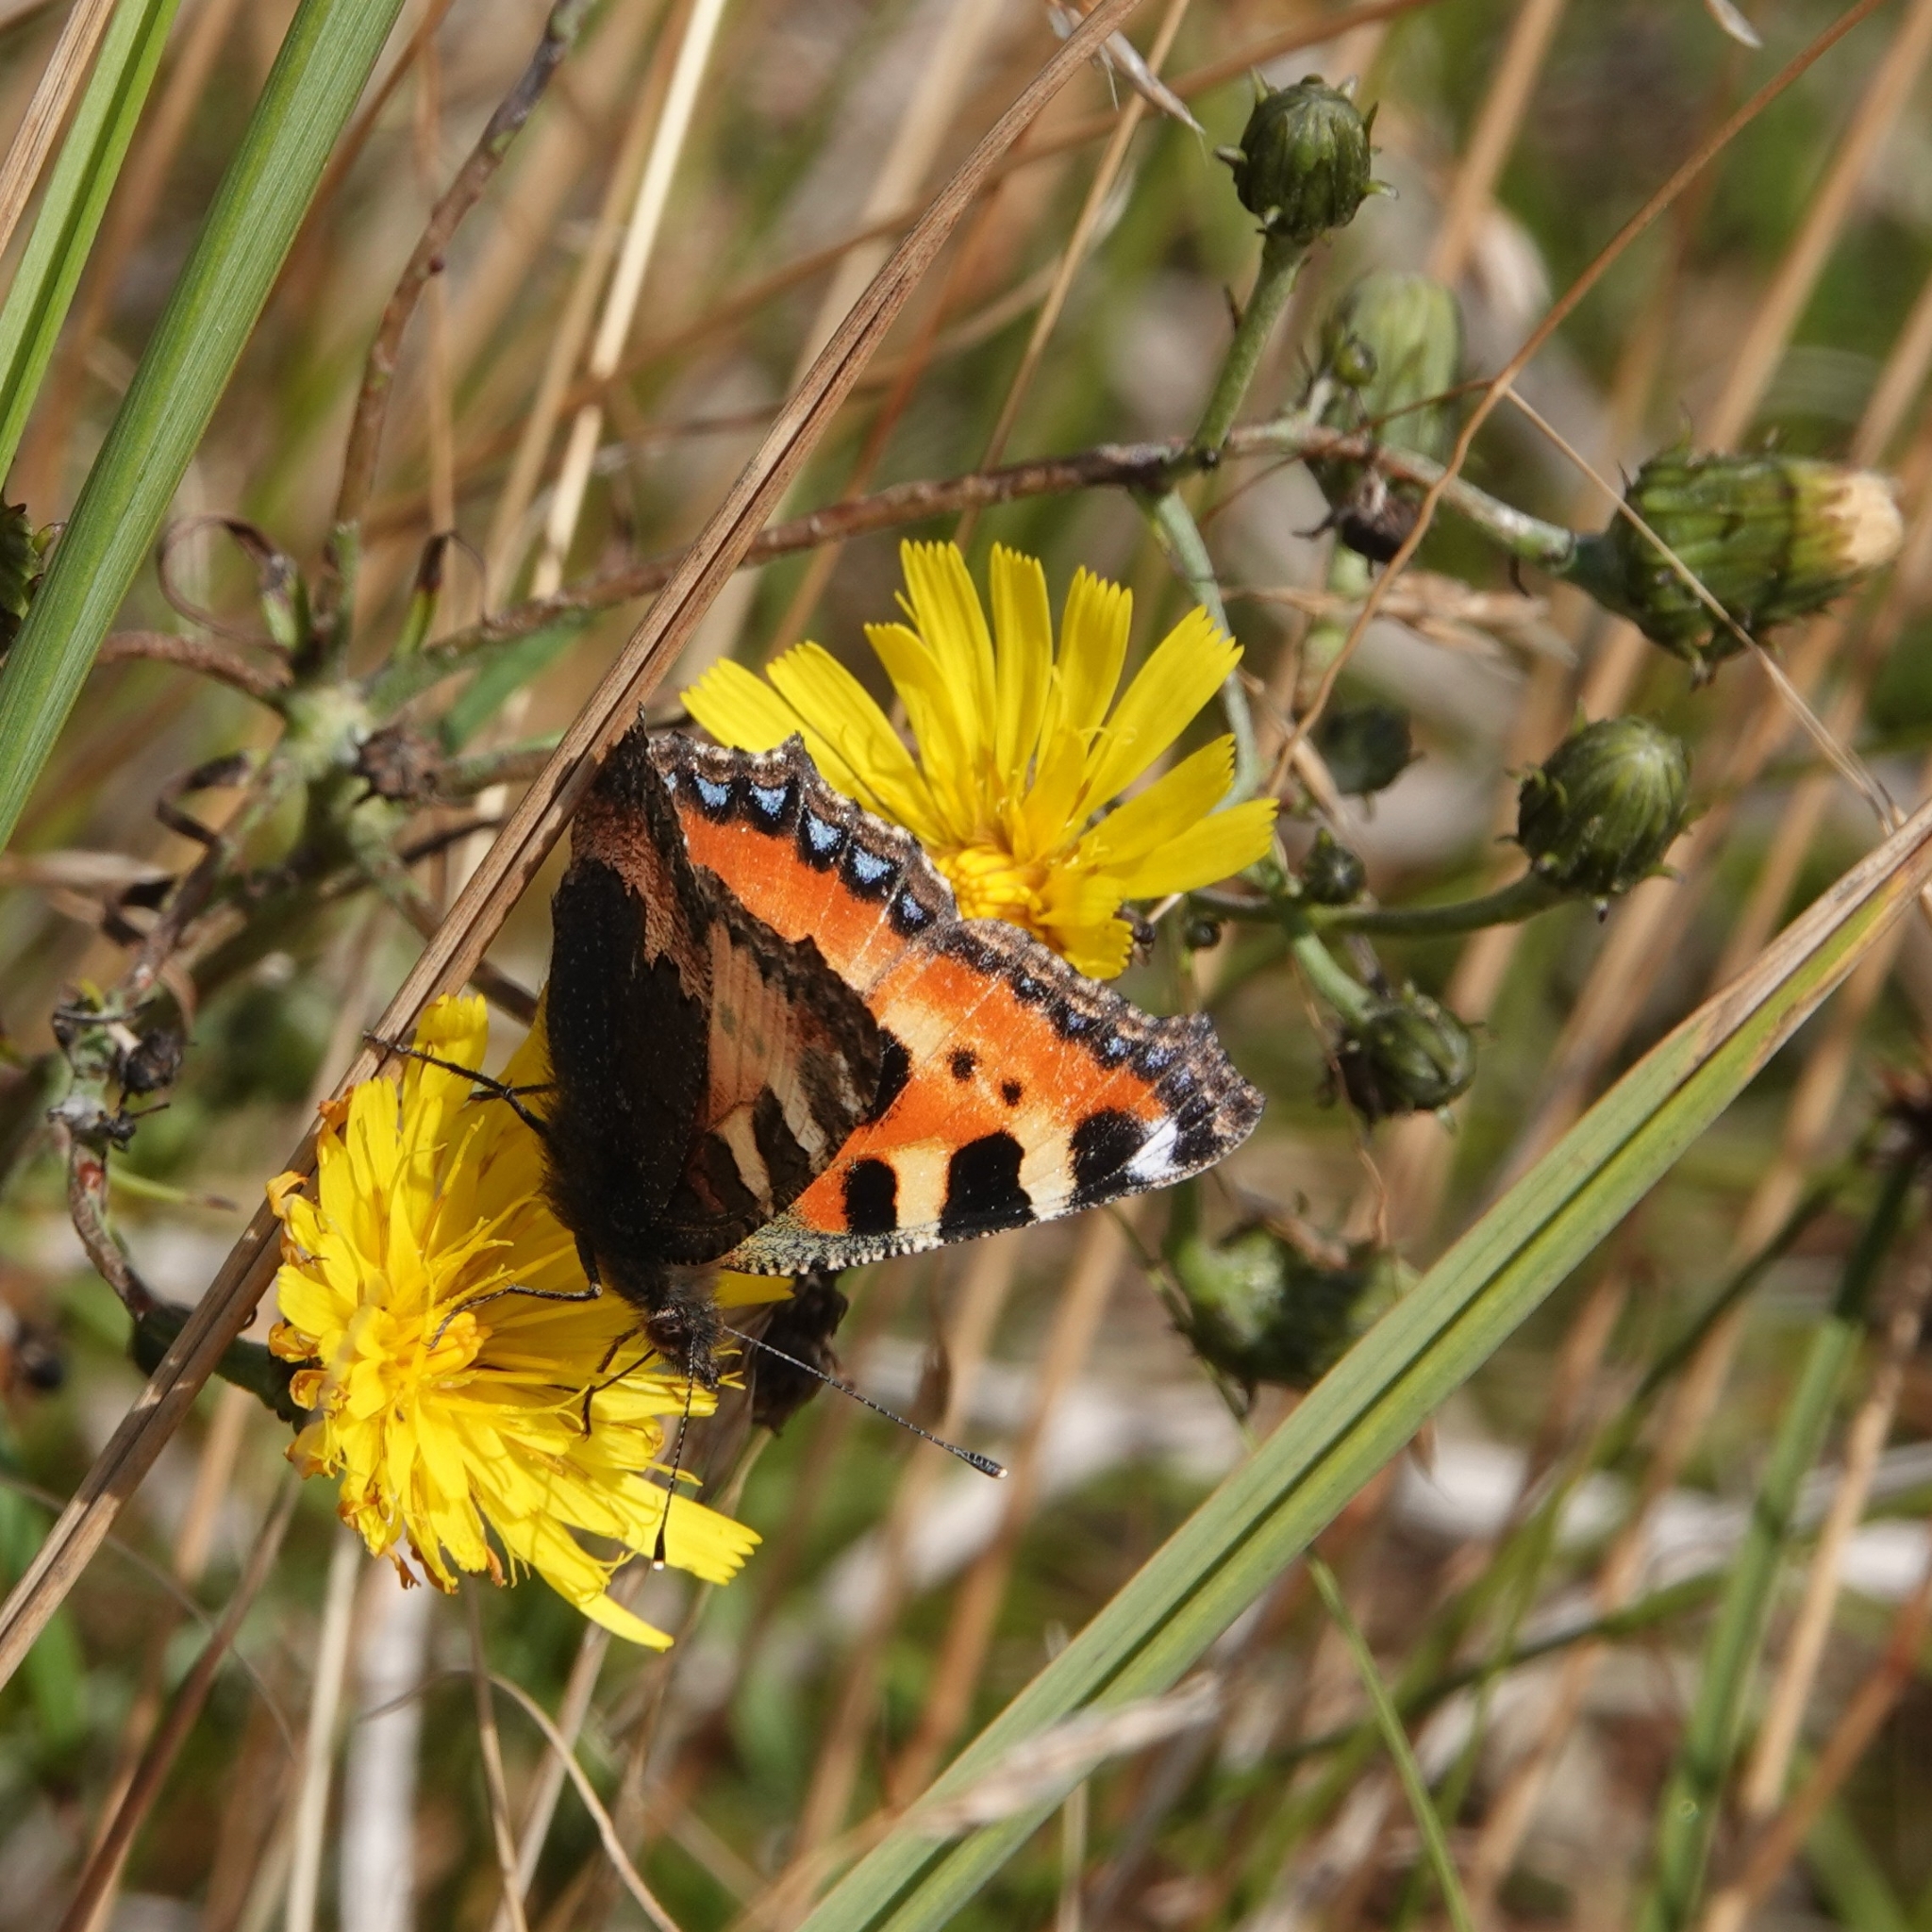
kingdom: Animalia
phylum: Arthropoda
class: Insecta
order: Lepidoptera
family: Nymphalidae
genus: Aglais
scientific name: Aglais urticae
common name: Small tortoiseshell
